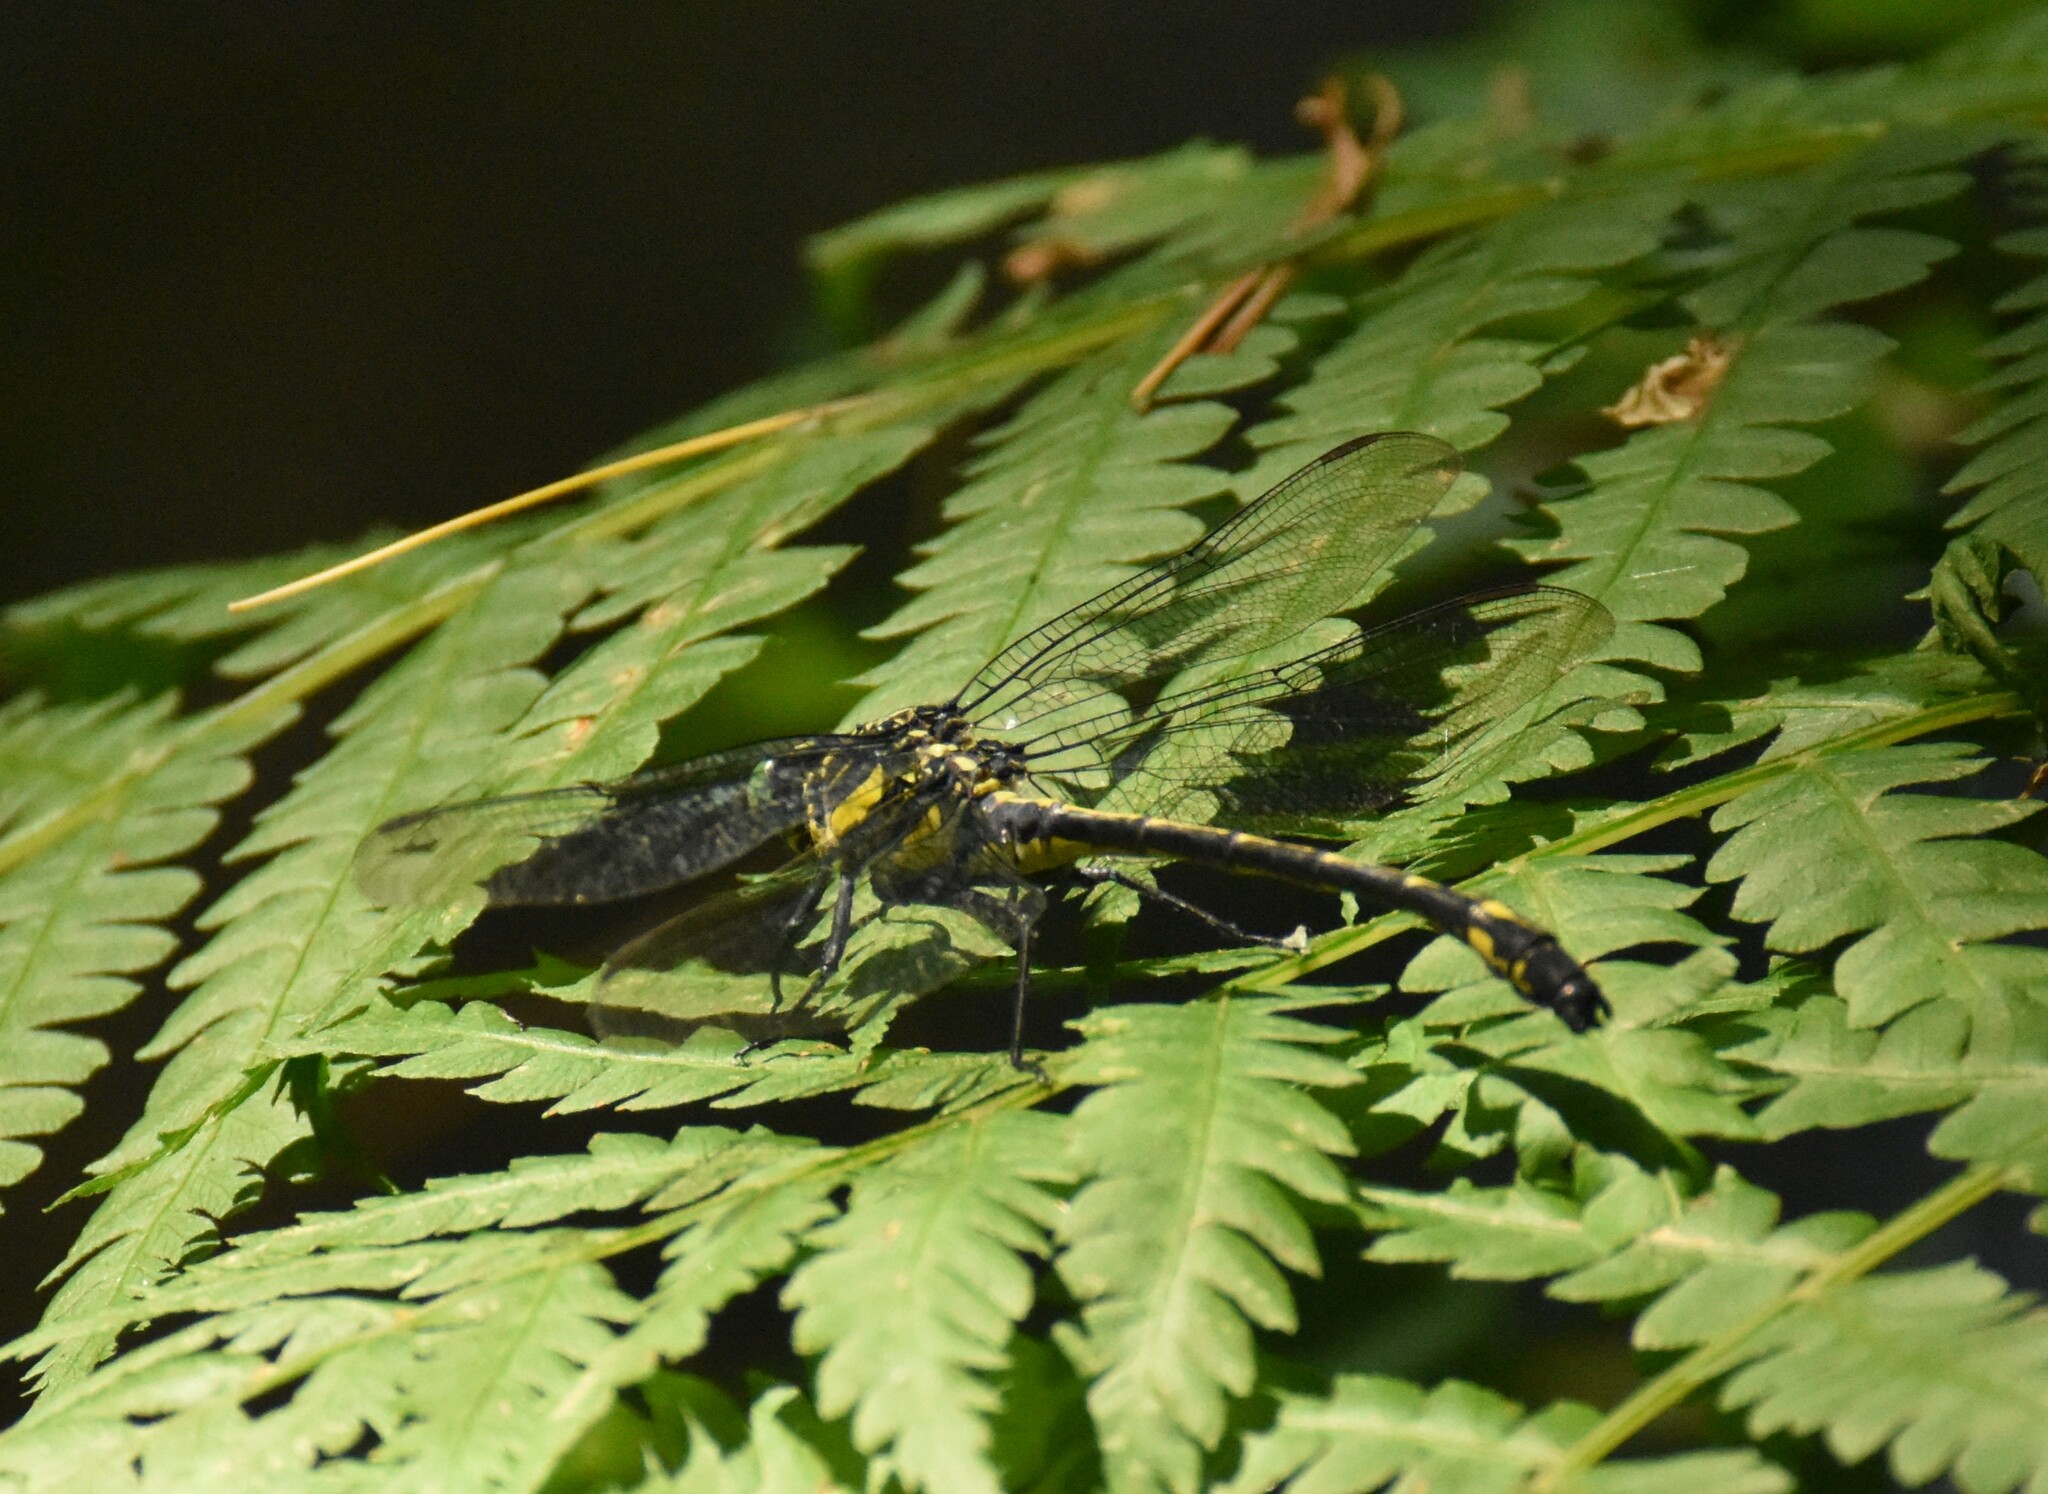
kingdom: Animalia
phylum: Arthropoda
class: Insecta
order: Odonata
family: Gomphidae
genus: Hagenius
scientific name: Hagenius brevistylus
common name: Dragonhunter
